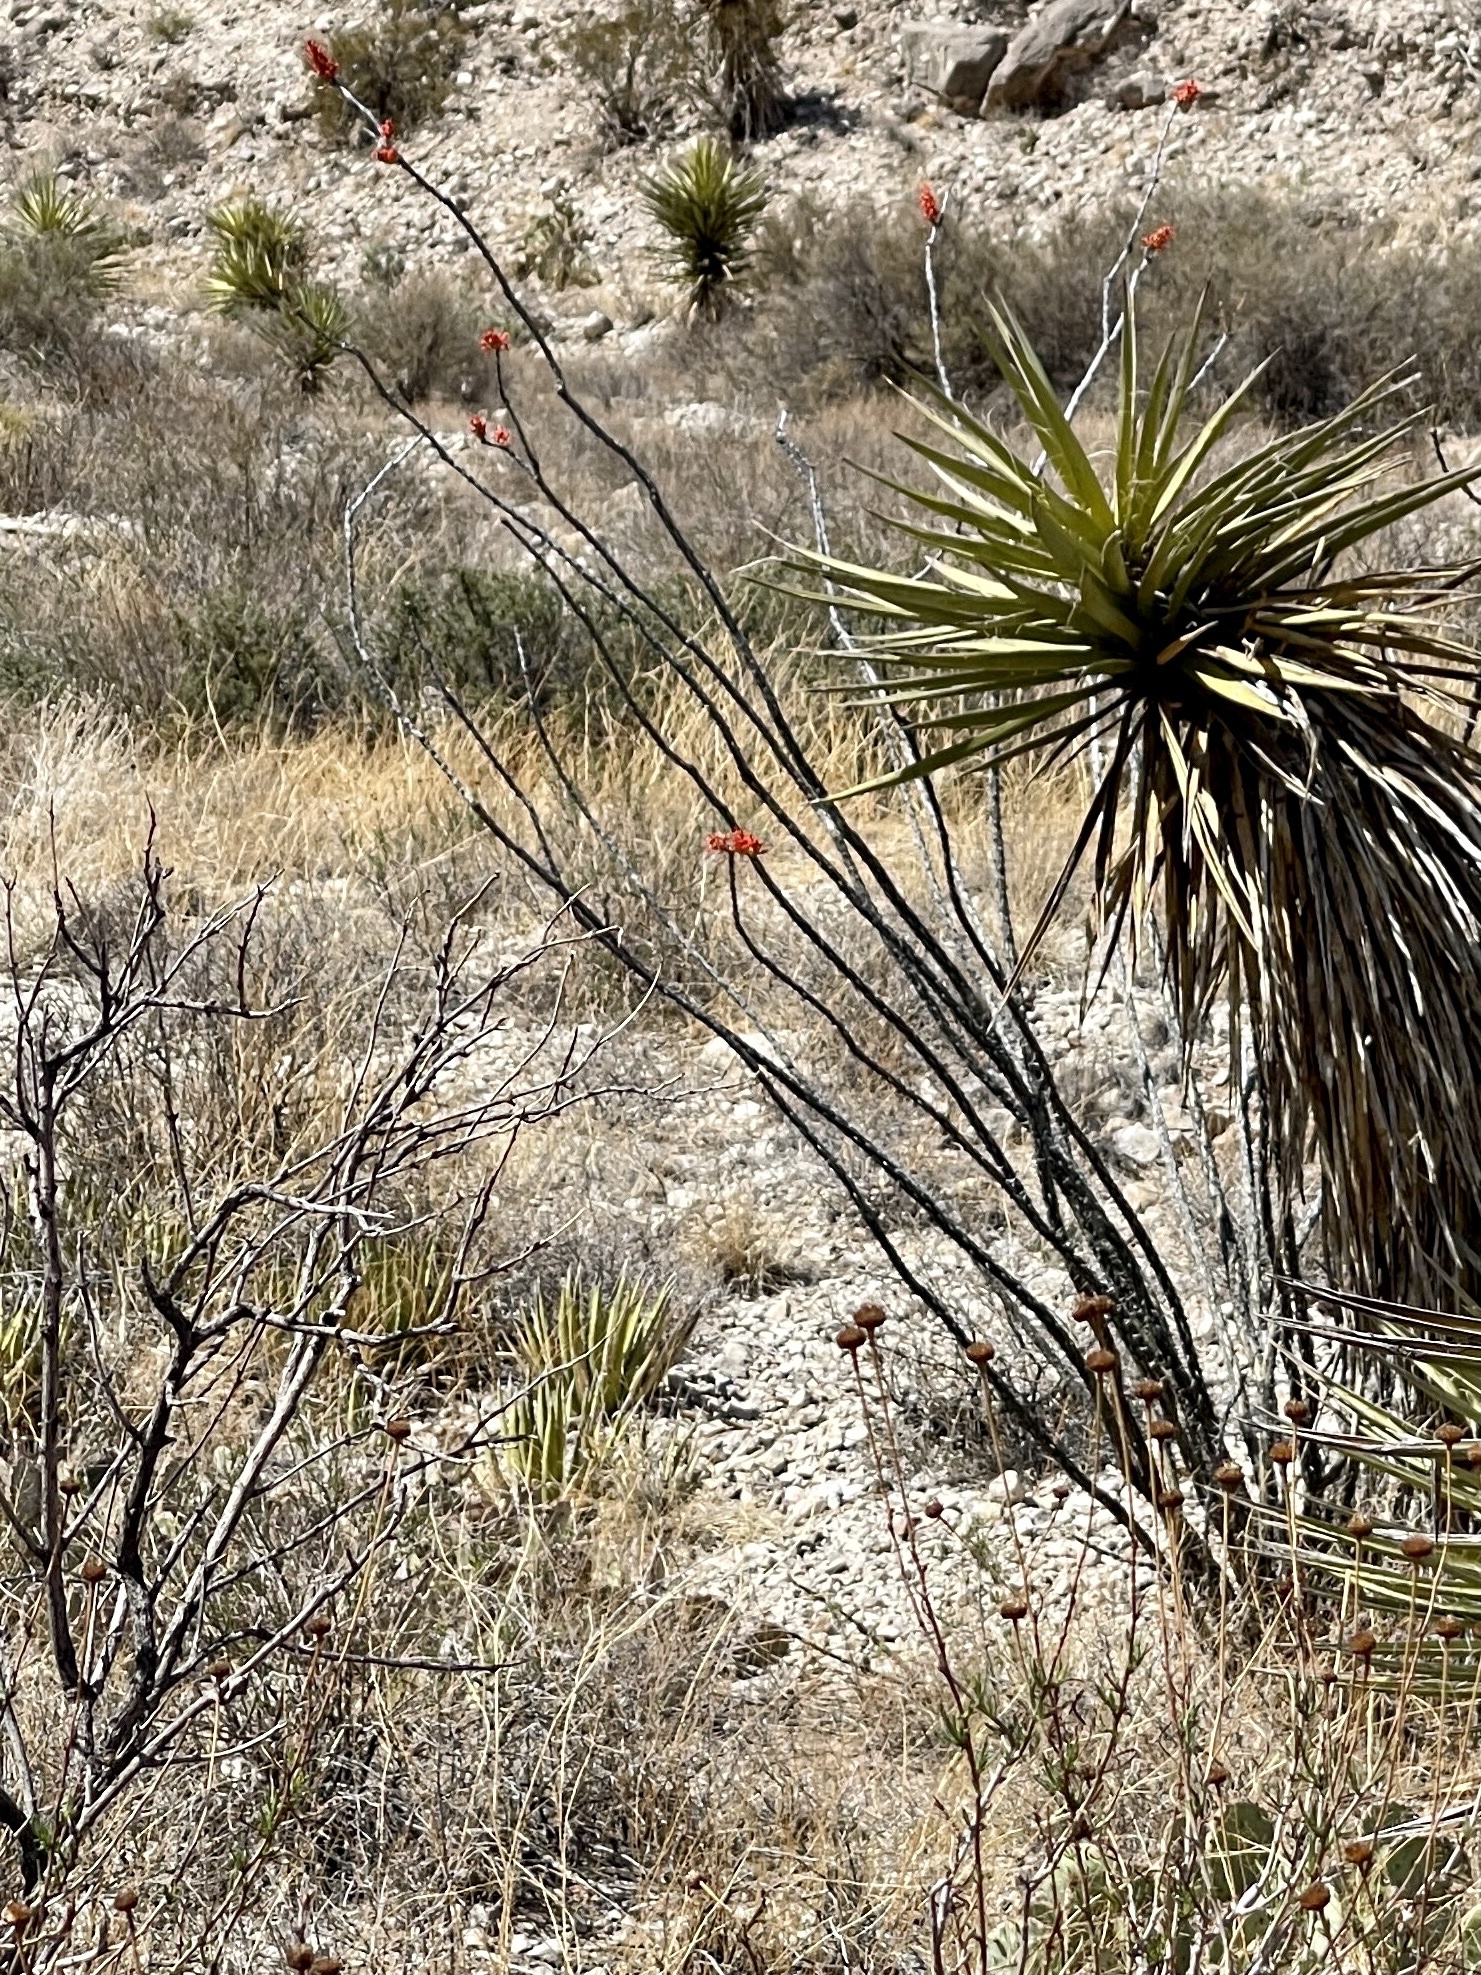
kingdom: Plantae
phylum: Tracheophyta
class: Magnoliopsida
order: Ericales
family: Fouquieriaceae
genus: Fouquieria
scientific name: Fouquieria splendens
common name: Vine-cactus
